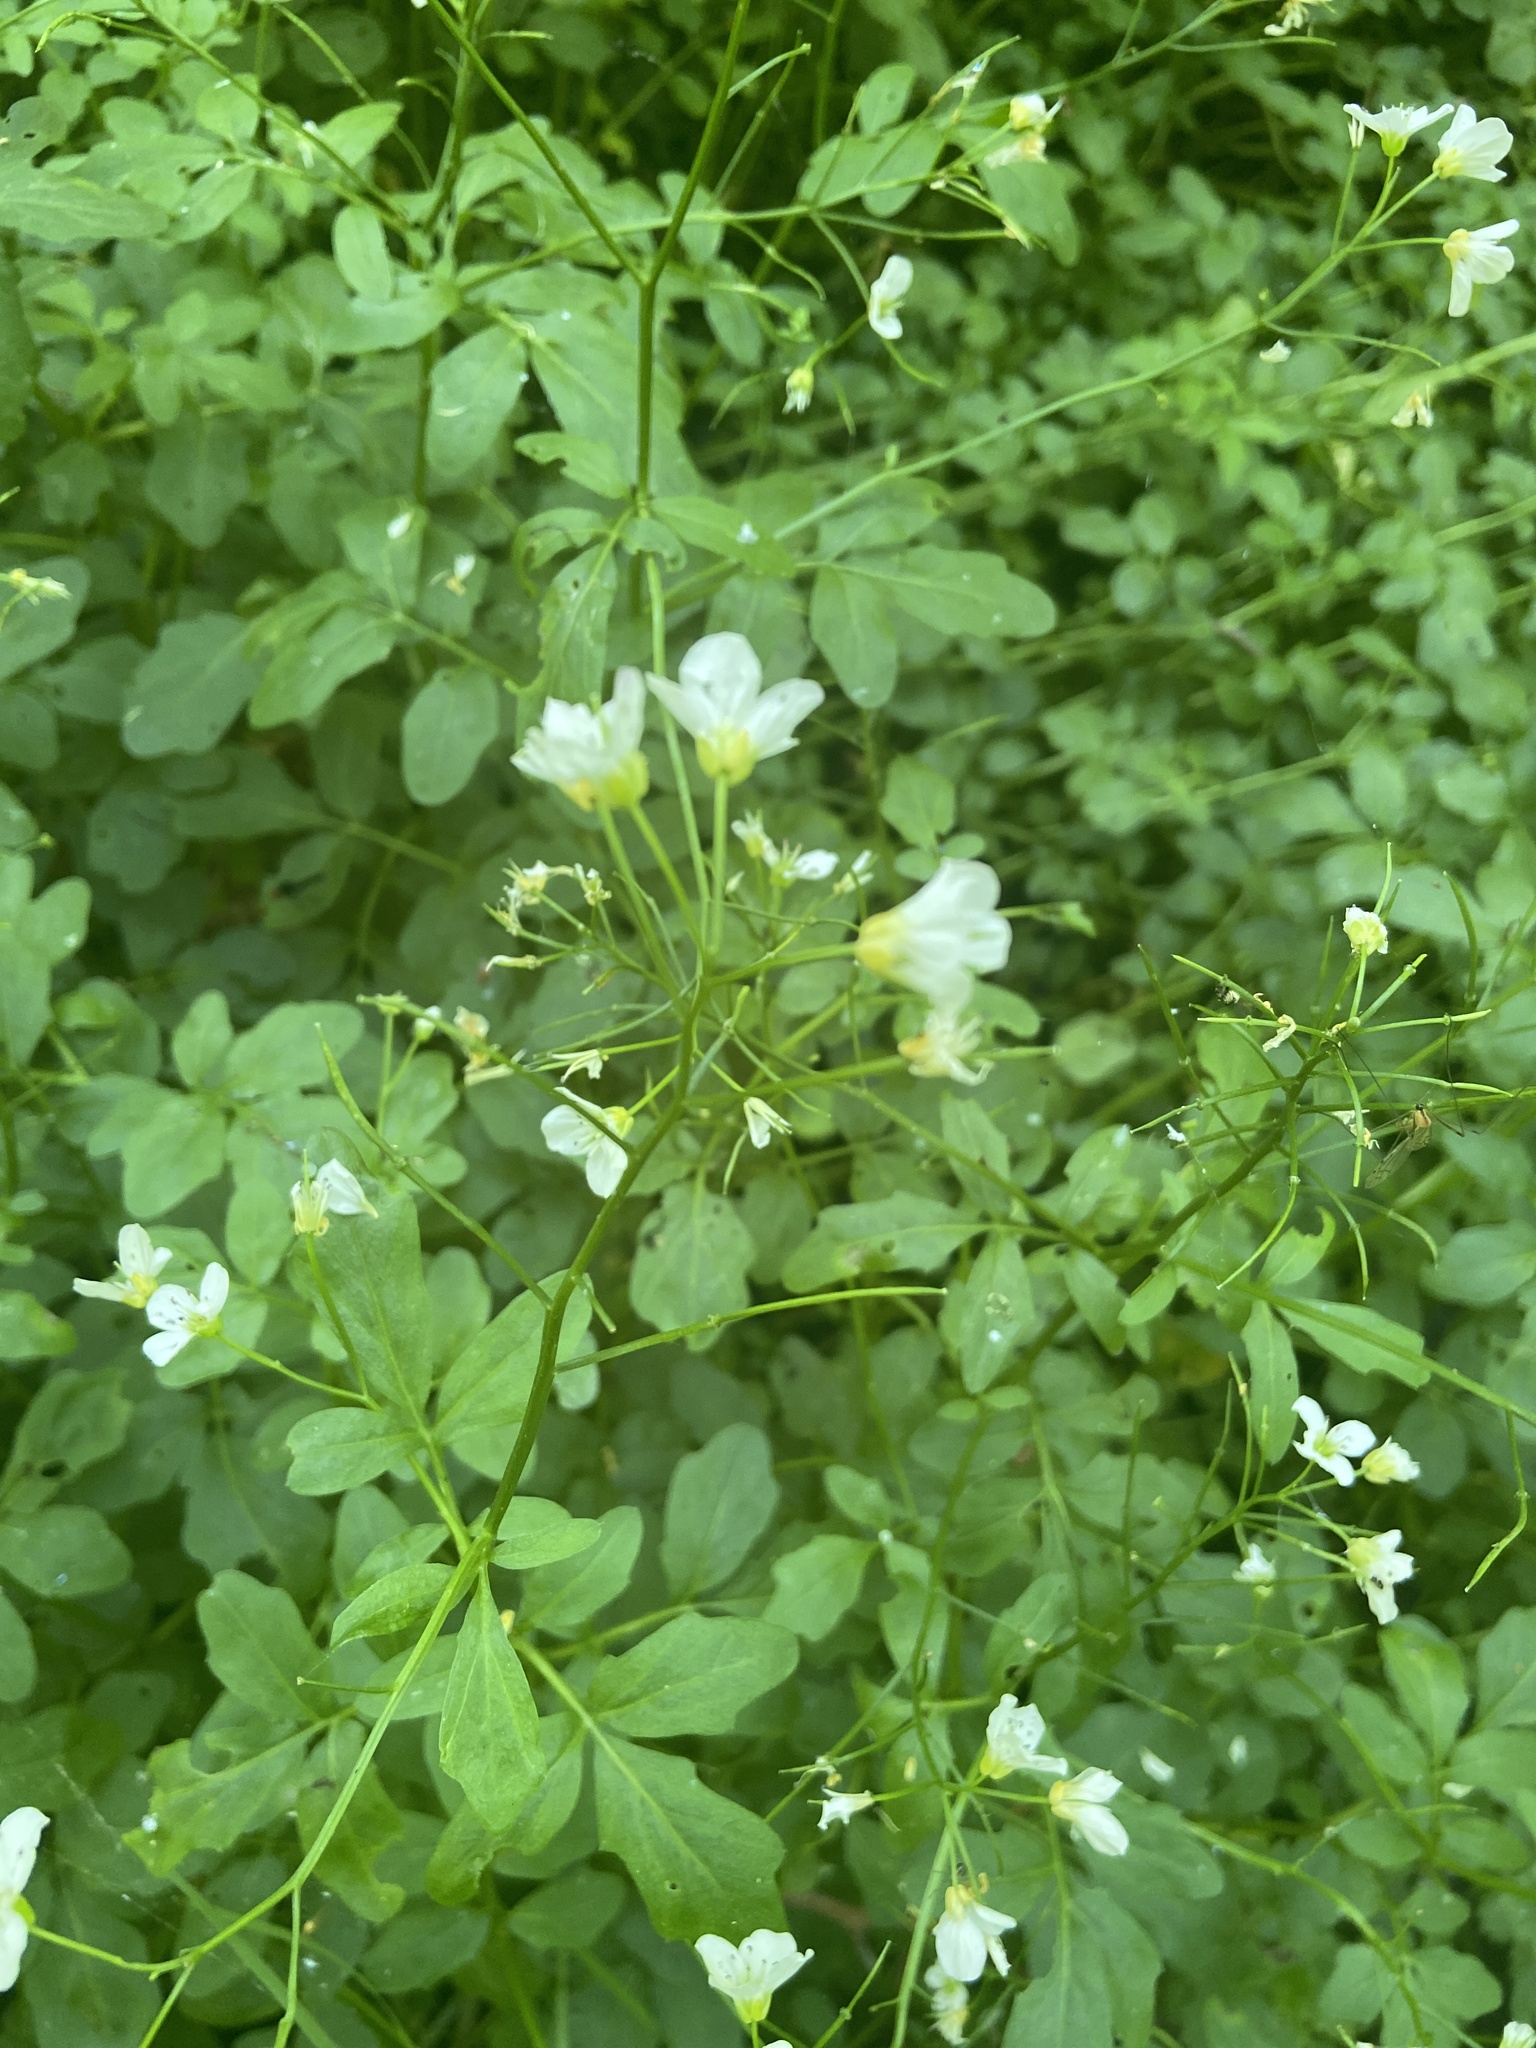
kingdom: Plantae
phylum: Tracheophyta
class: Magnoliopsida
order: Brassicales
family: Brassicaceae
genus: Cardamine
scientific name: Cardamine amara
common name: Large bitter-cress
